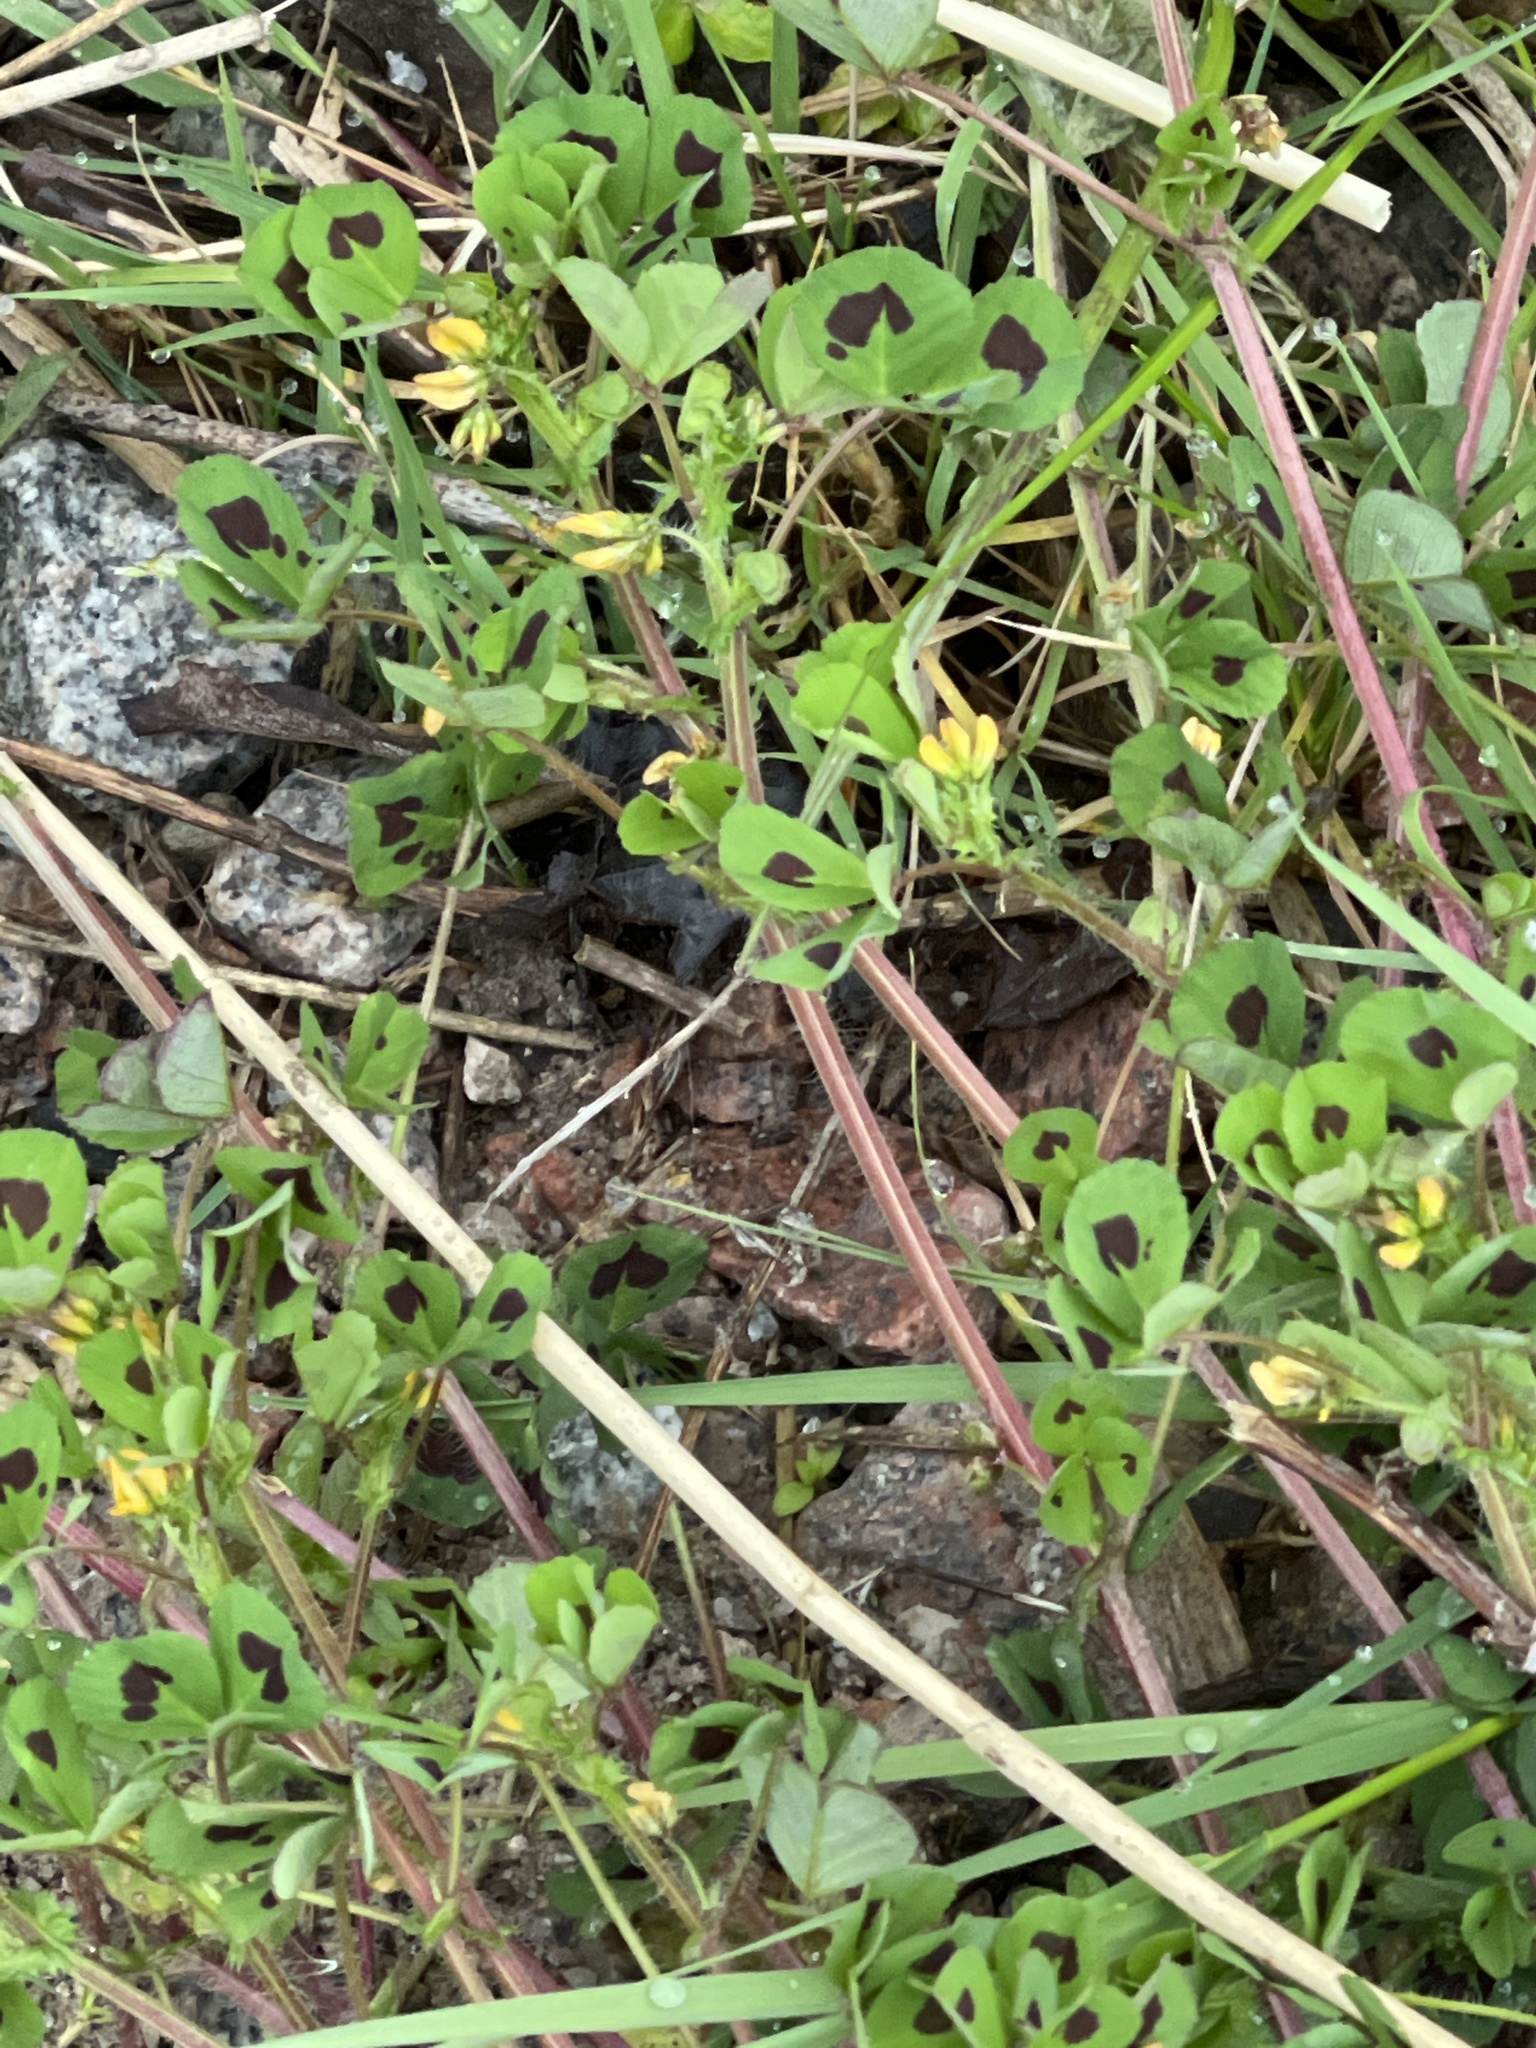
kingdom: Plantae
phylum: Tracheophyta
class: Magnoliopsida
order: Fabales
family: Fabaceae
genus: Medicago
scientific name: Medicago arabica
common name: Spotted medick
